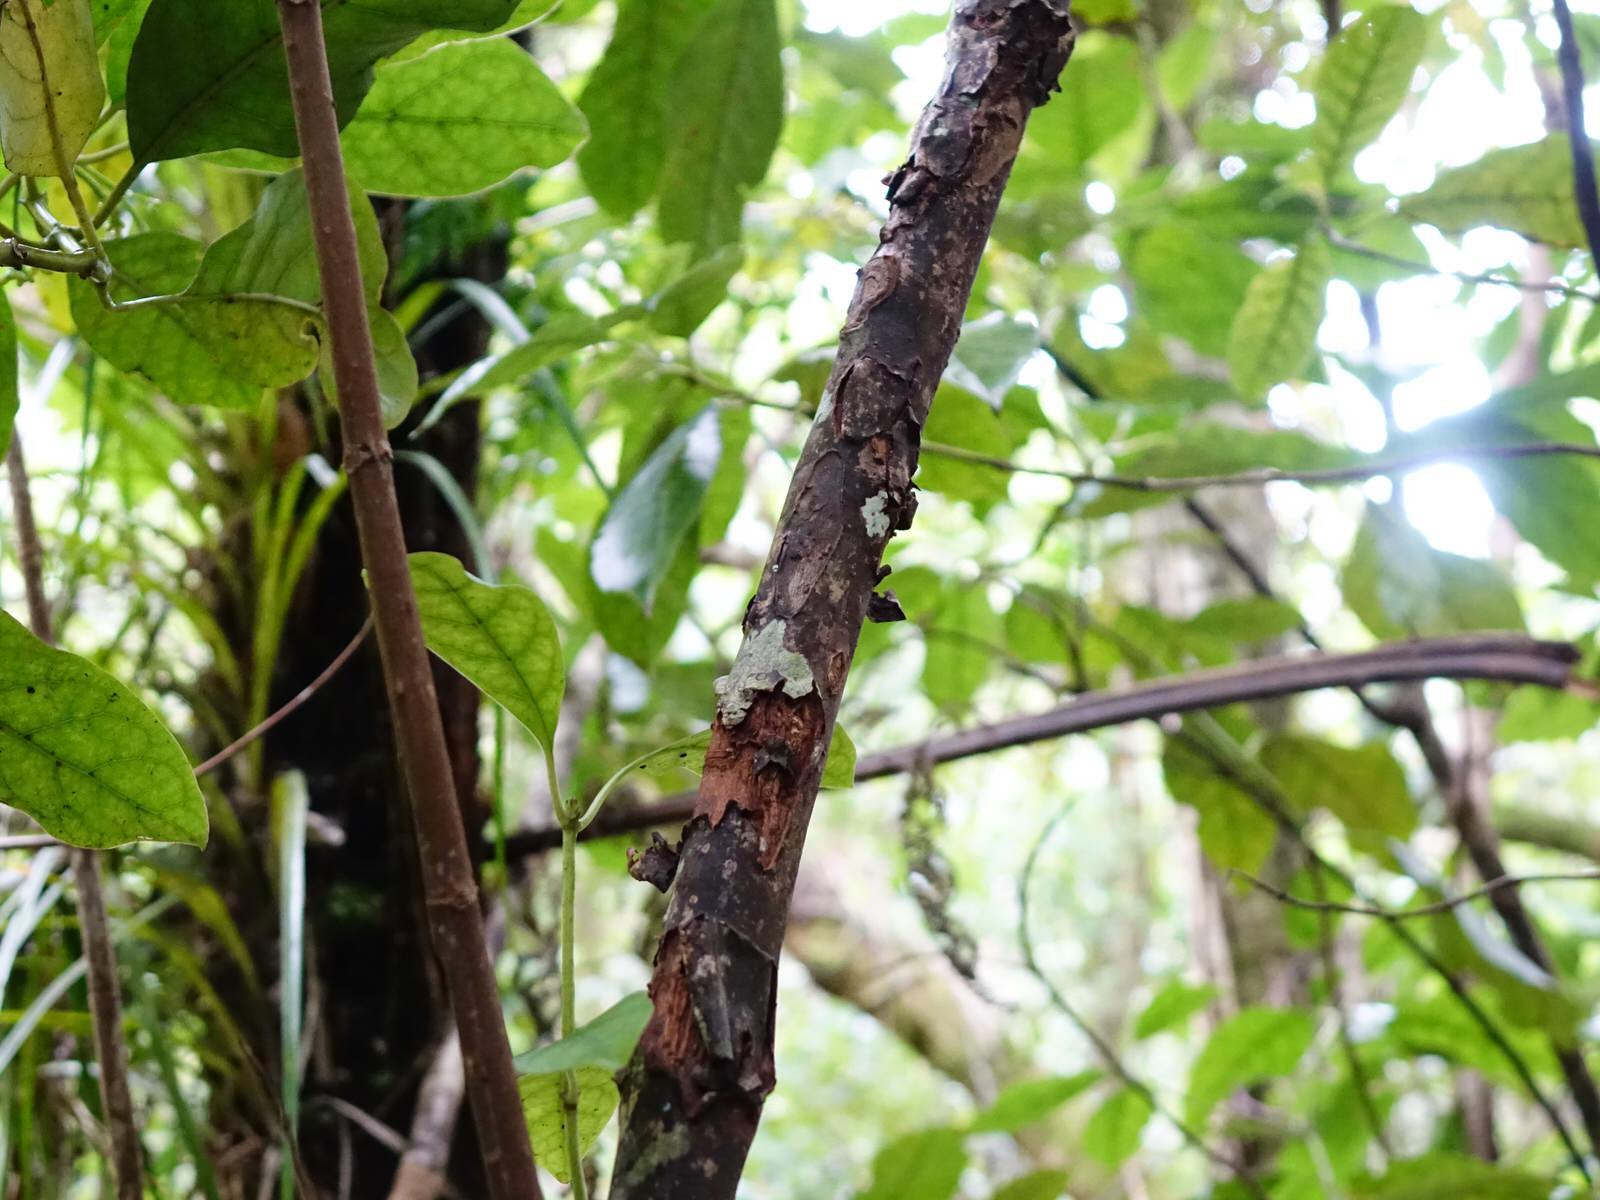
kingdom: Plantae
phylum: Tracheophyta
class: Magnoliopsida
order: Gentianales
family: Rubiaceae
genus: Coprosma
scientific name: Coprosma autumnalis
